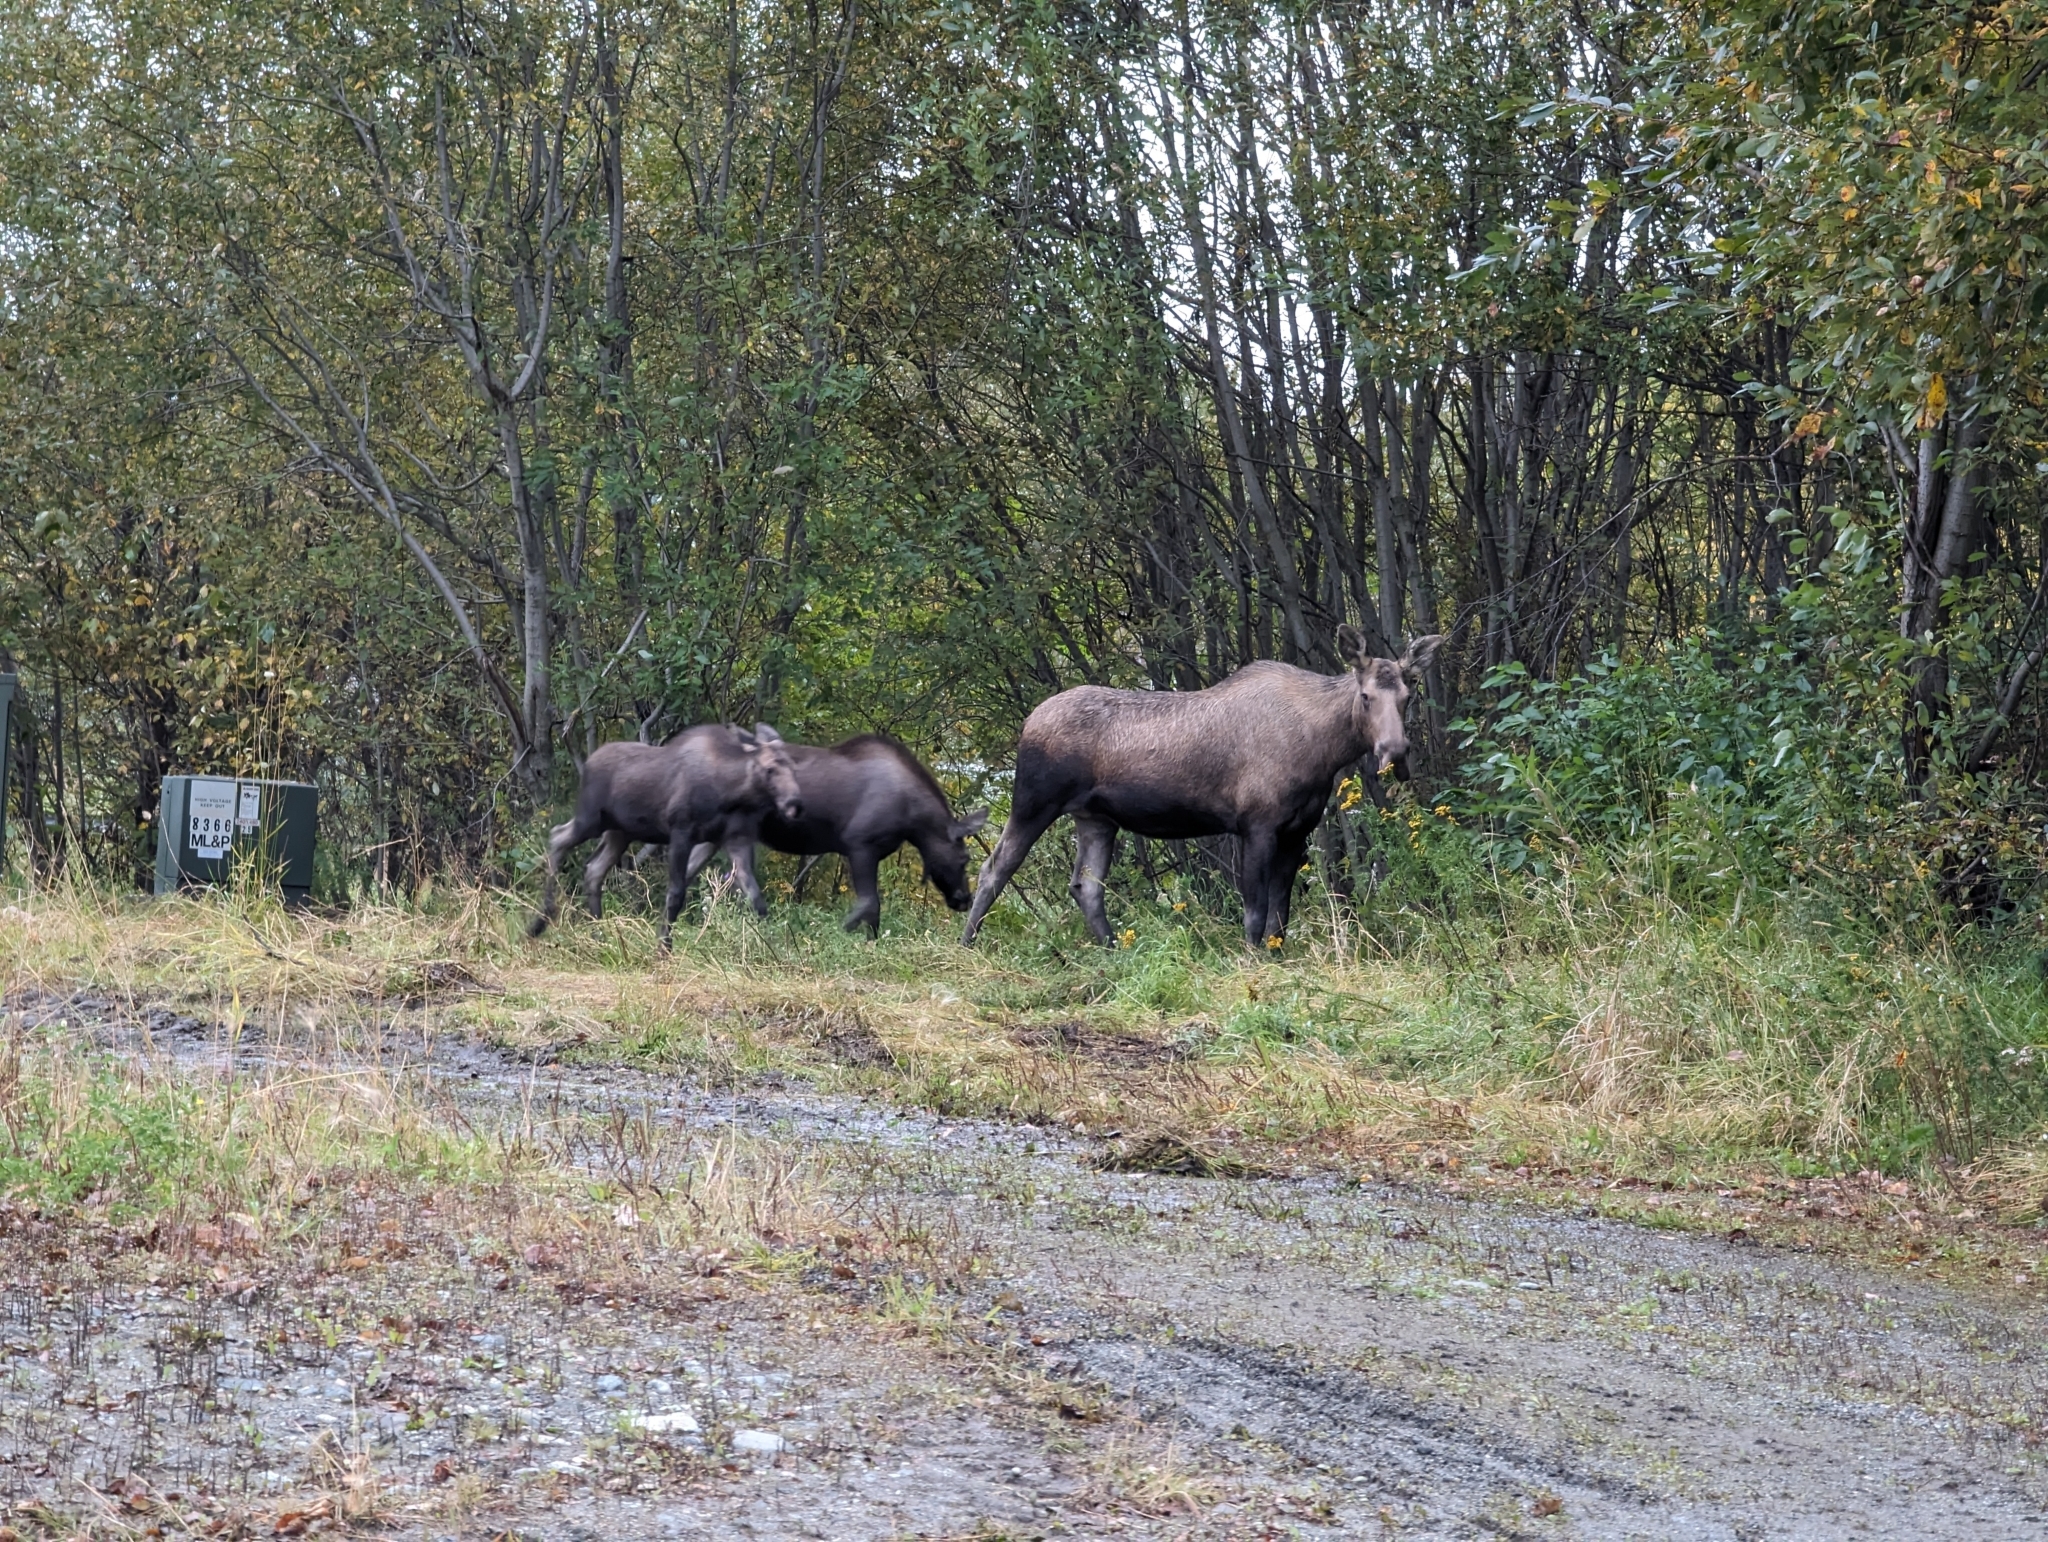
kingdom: Animalia
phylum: Chordata
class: Mammalia
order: Artiodactyla
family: Cervidae
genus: Alces
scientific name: Alces alces
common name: Moose
